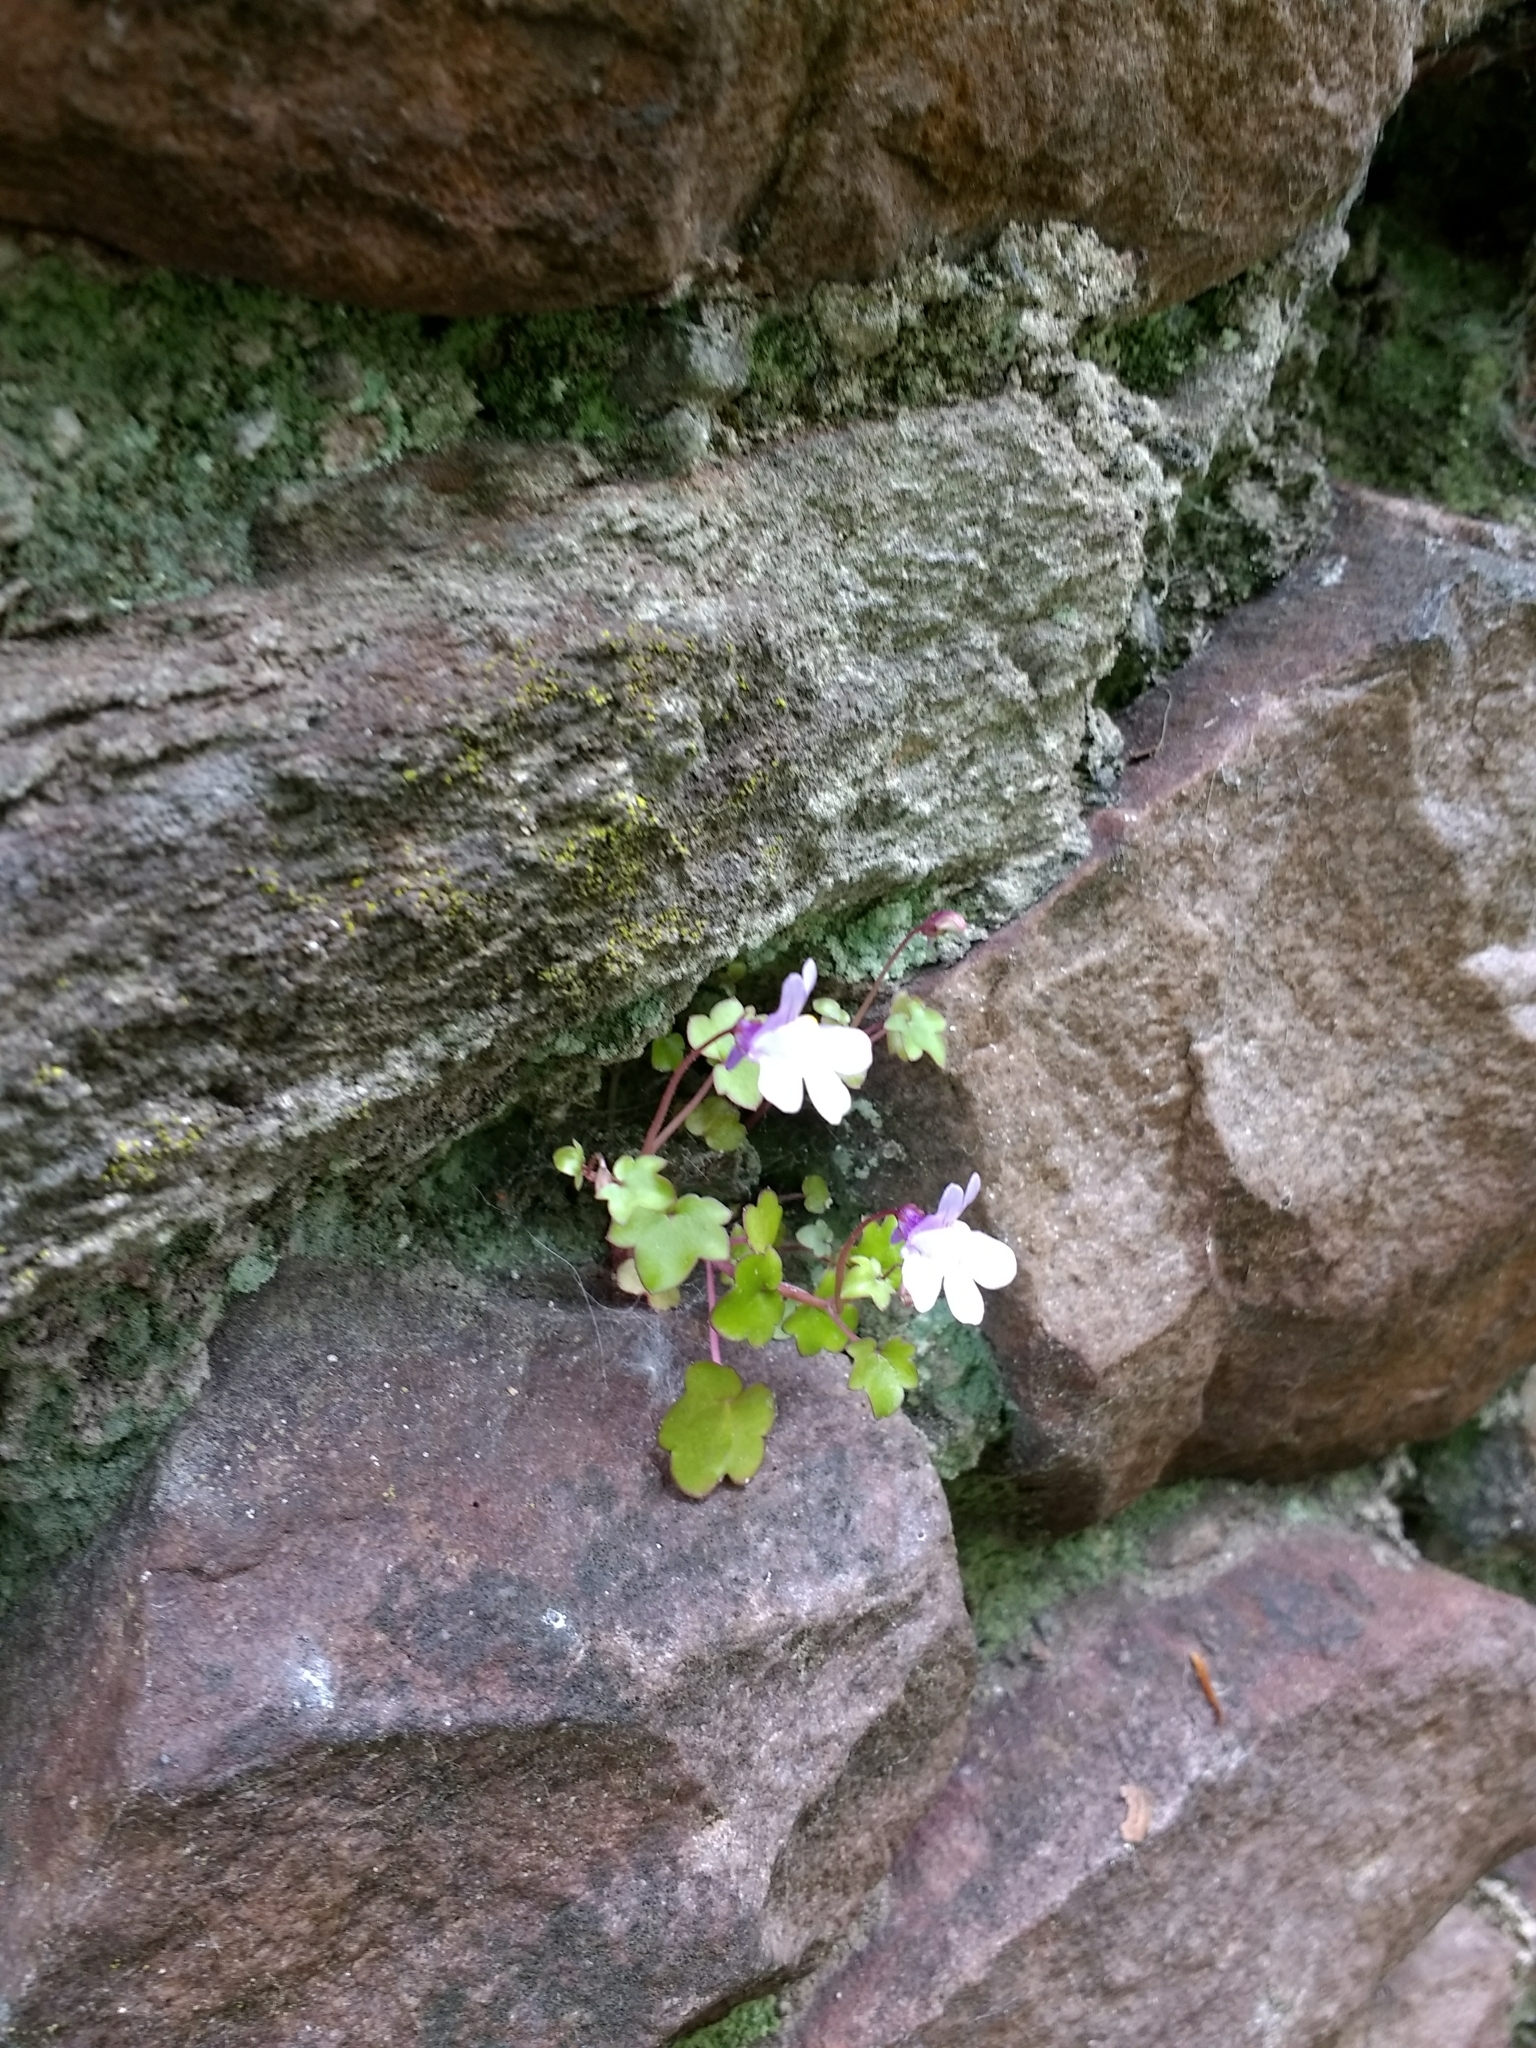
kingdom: Plantae
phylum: Tracheophyta
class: Magnoliopsida
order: Lamiales
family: Plantaginaceae
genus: Cymbalaria
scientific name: Cymbalaria muralis
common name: Ivy-leaved toadflax
